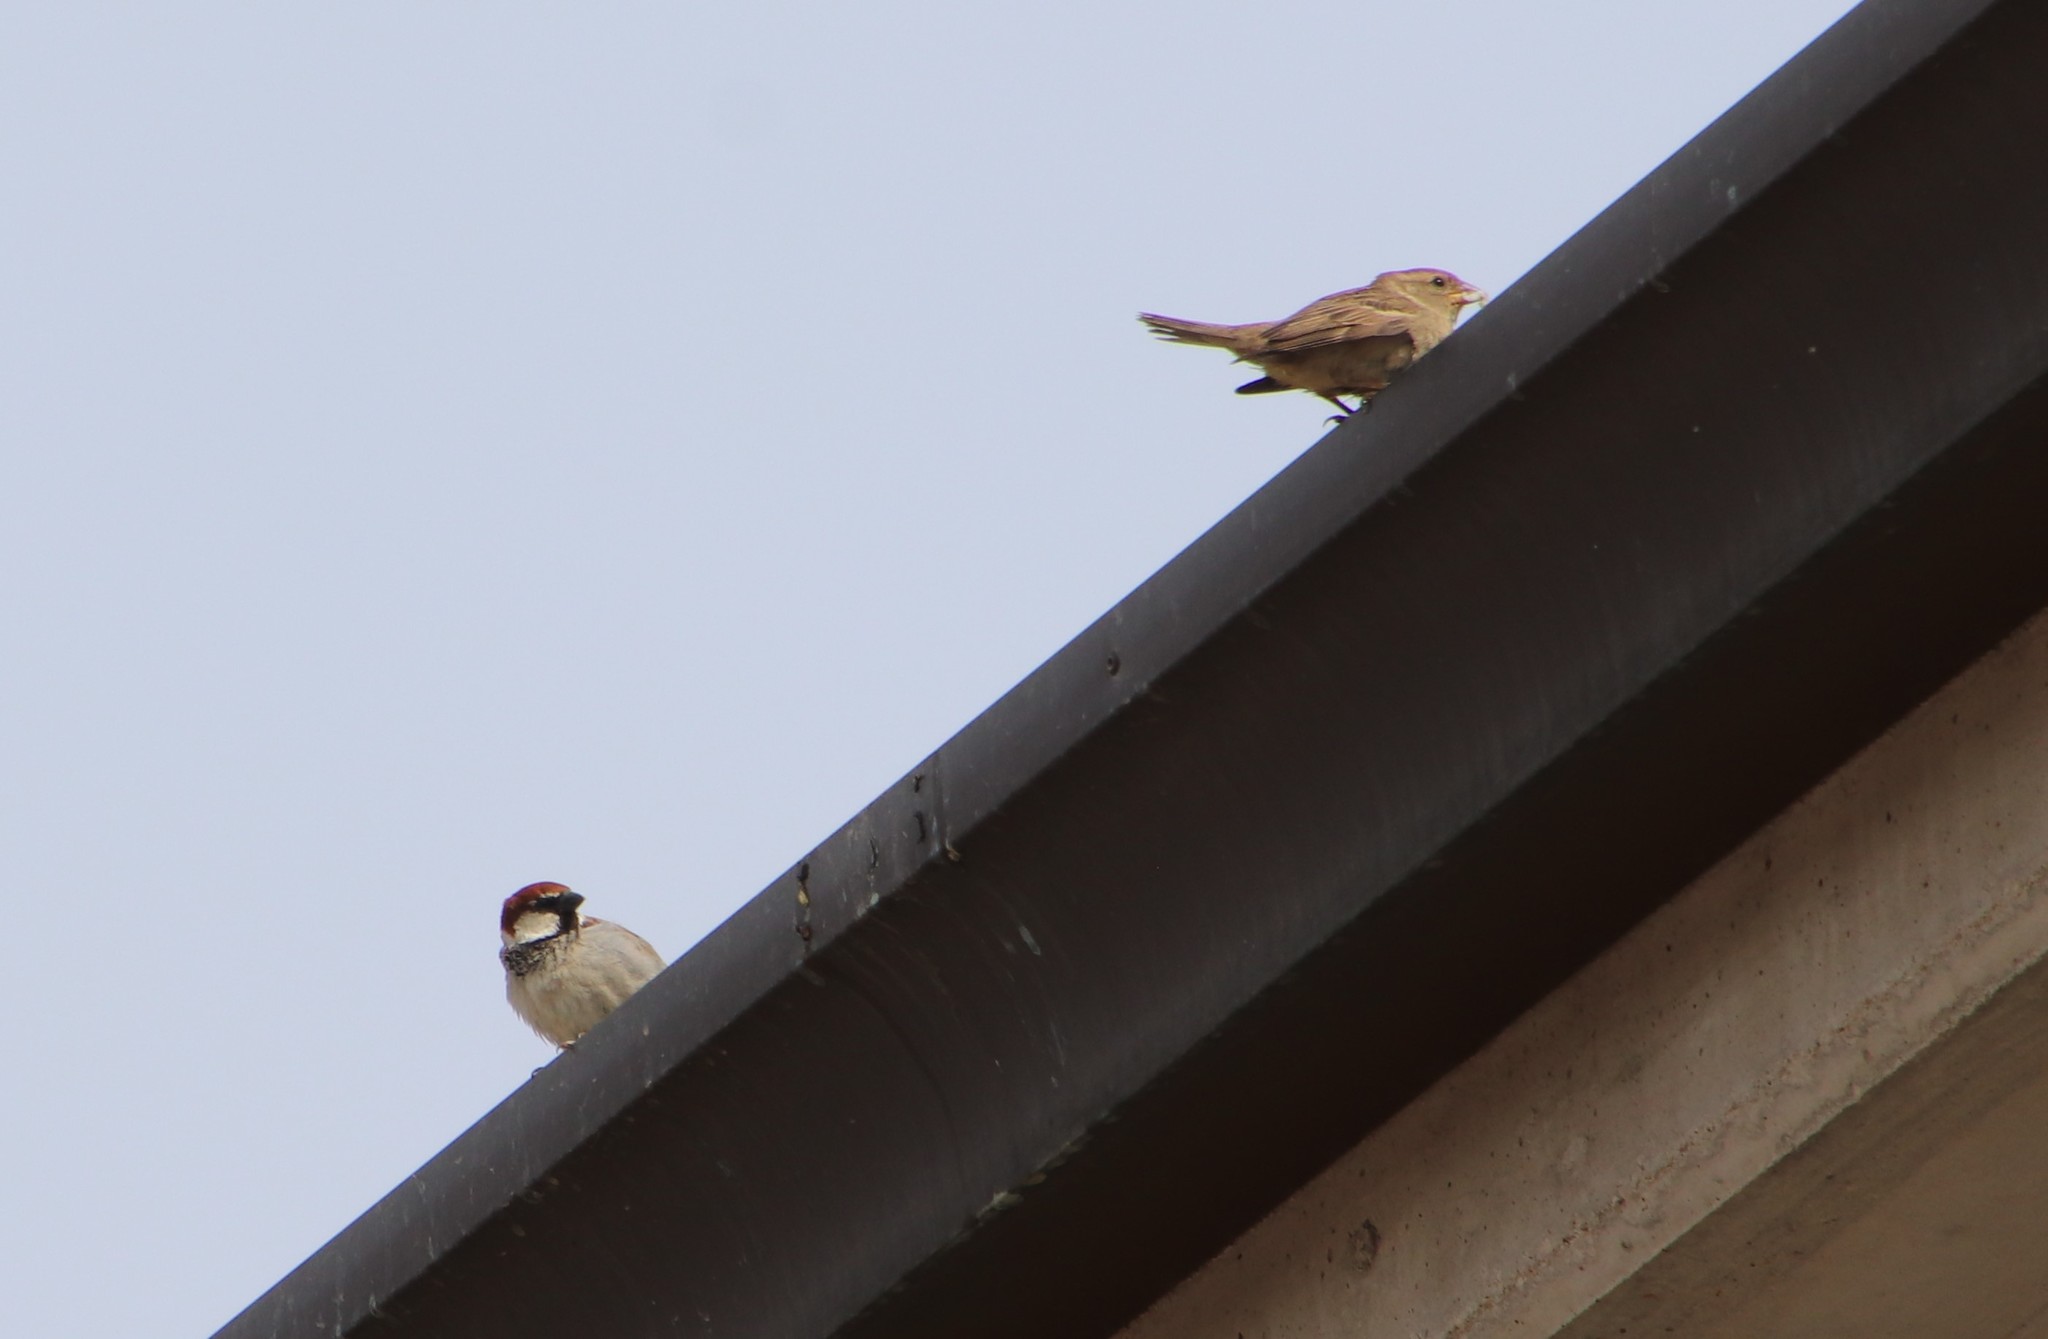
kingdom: Animalia
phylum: Chordata
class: Aves
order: Passeriformes
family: Passeridae
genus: Passer
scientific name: Passer italiae
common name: Italian sparrow
